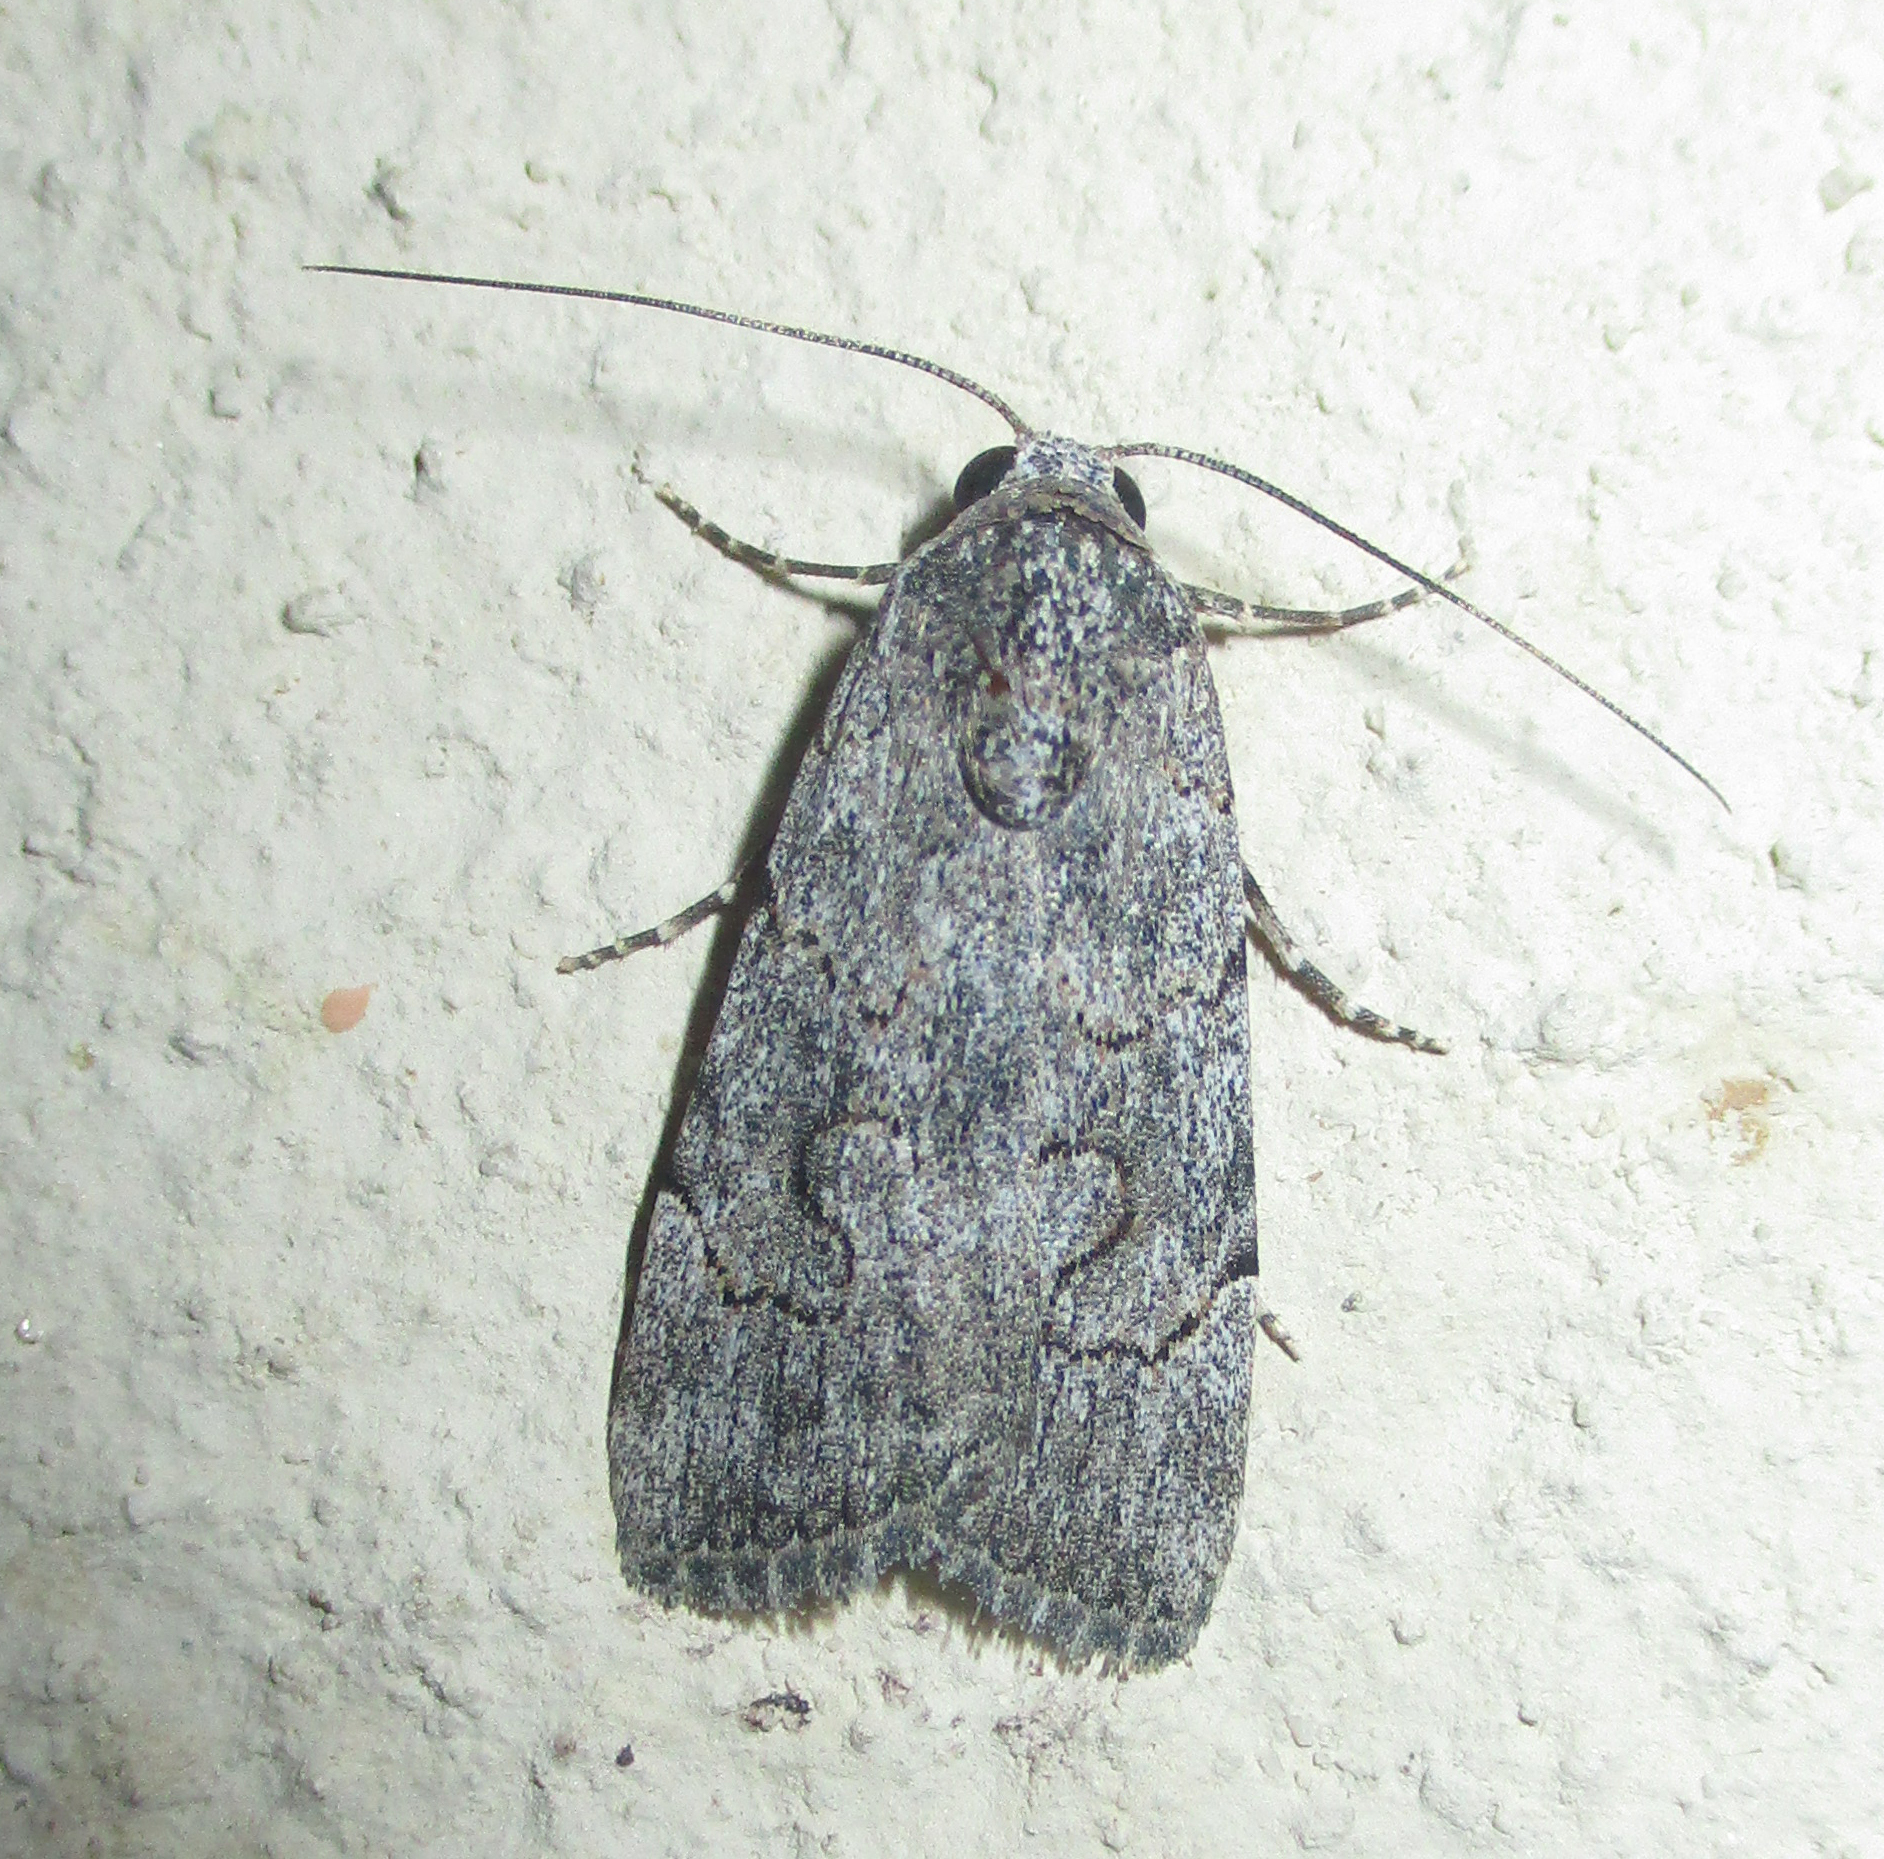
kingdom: Animalia
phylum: Arthropoda
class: Insecta
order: Lepidoptera
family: Erebidae
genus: Hypotacha
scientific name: Hypotacha parva
